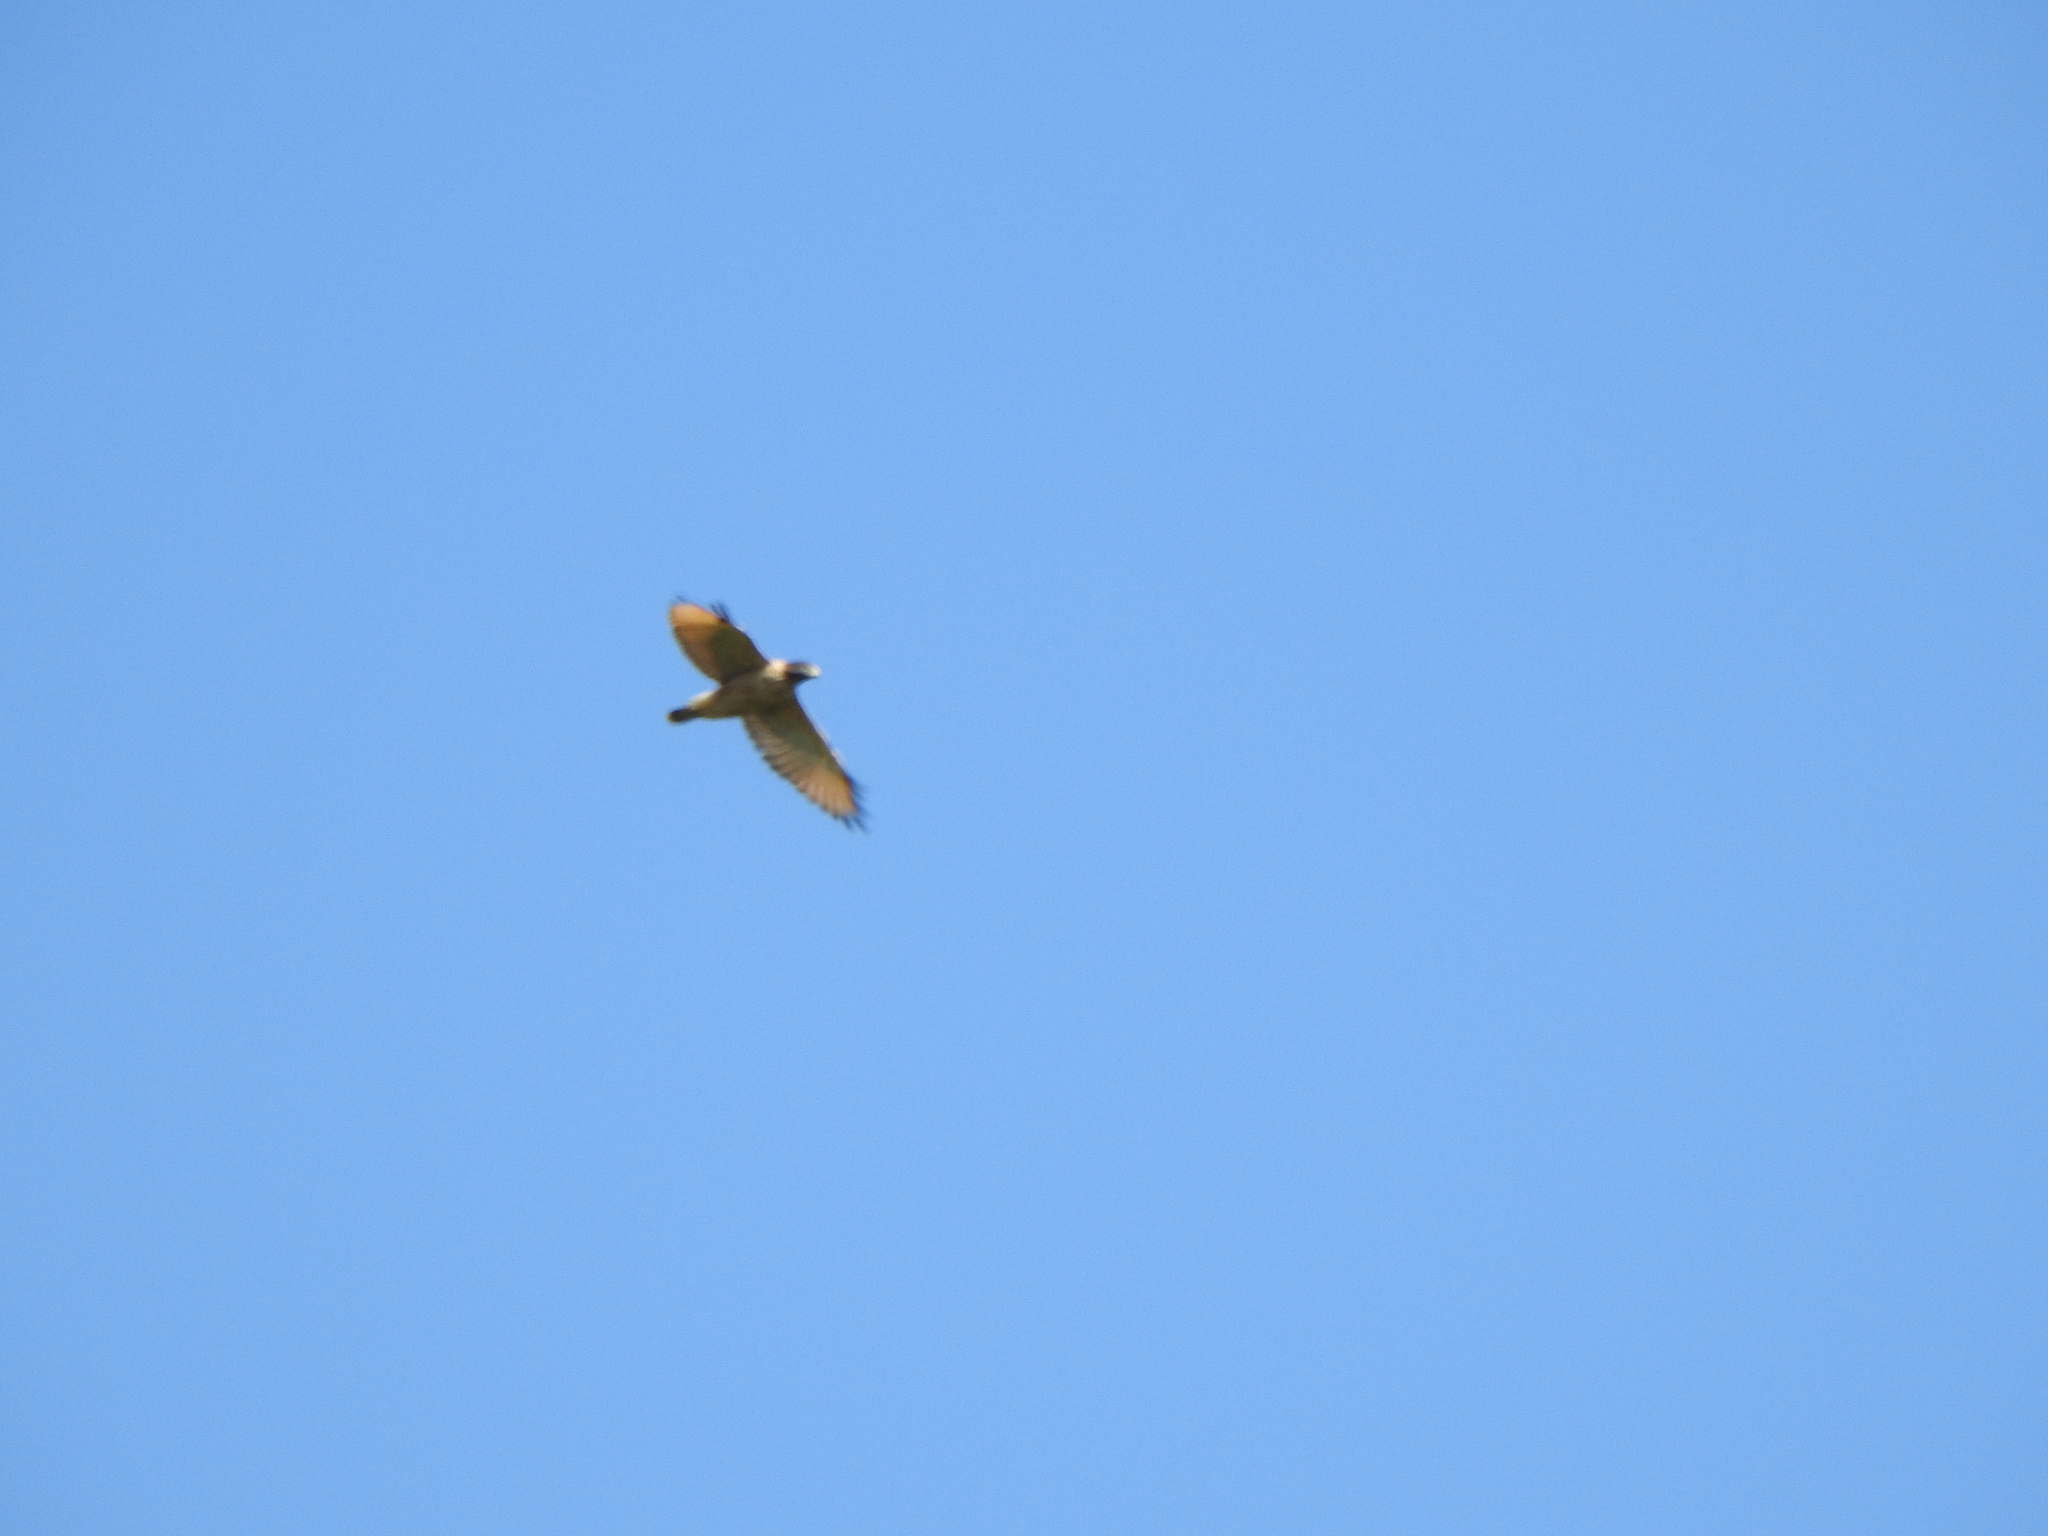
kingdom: Animalia
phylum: Chordata
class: Aves
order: Accipitriformes
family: Accipitridae
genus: Rupornis
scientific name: Rupornis magnirostris
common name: Roadside hawk
